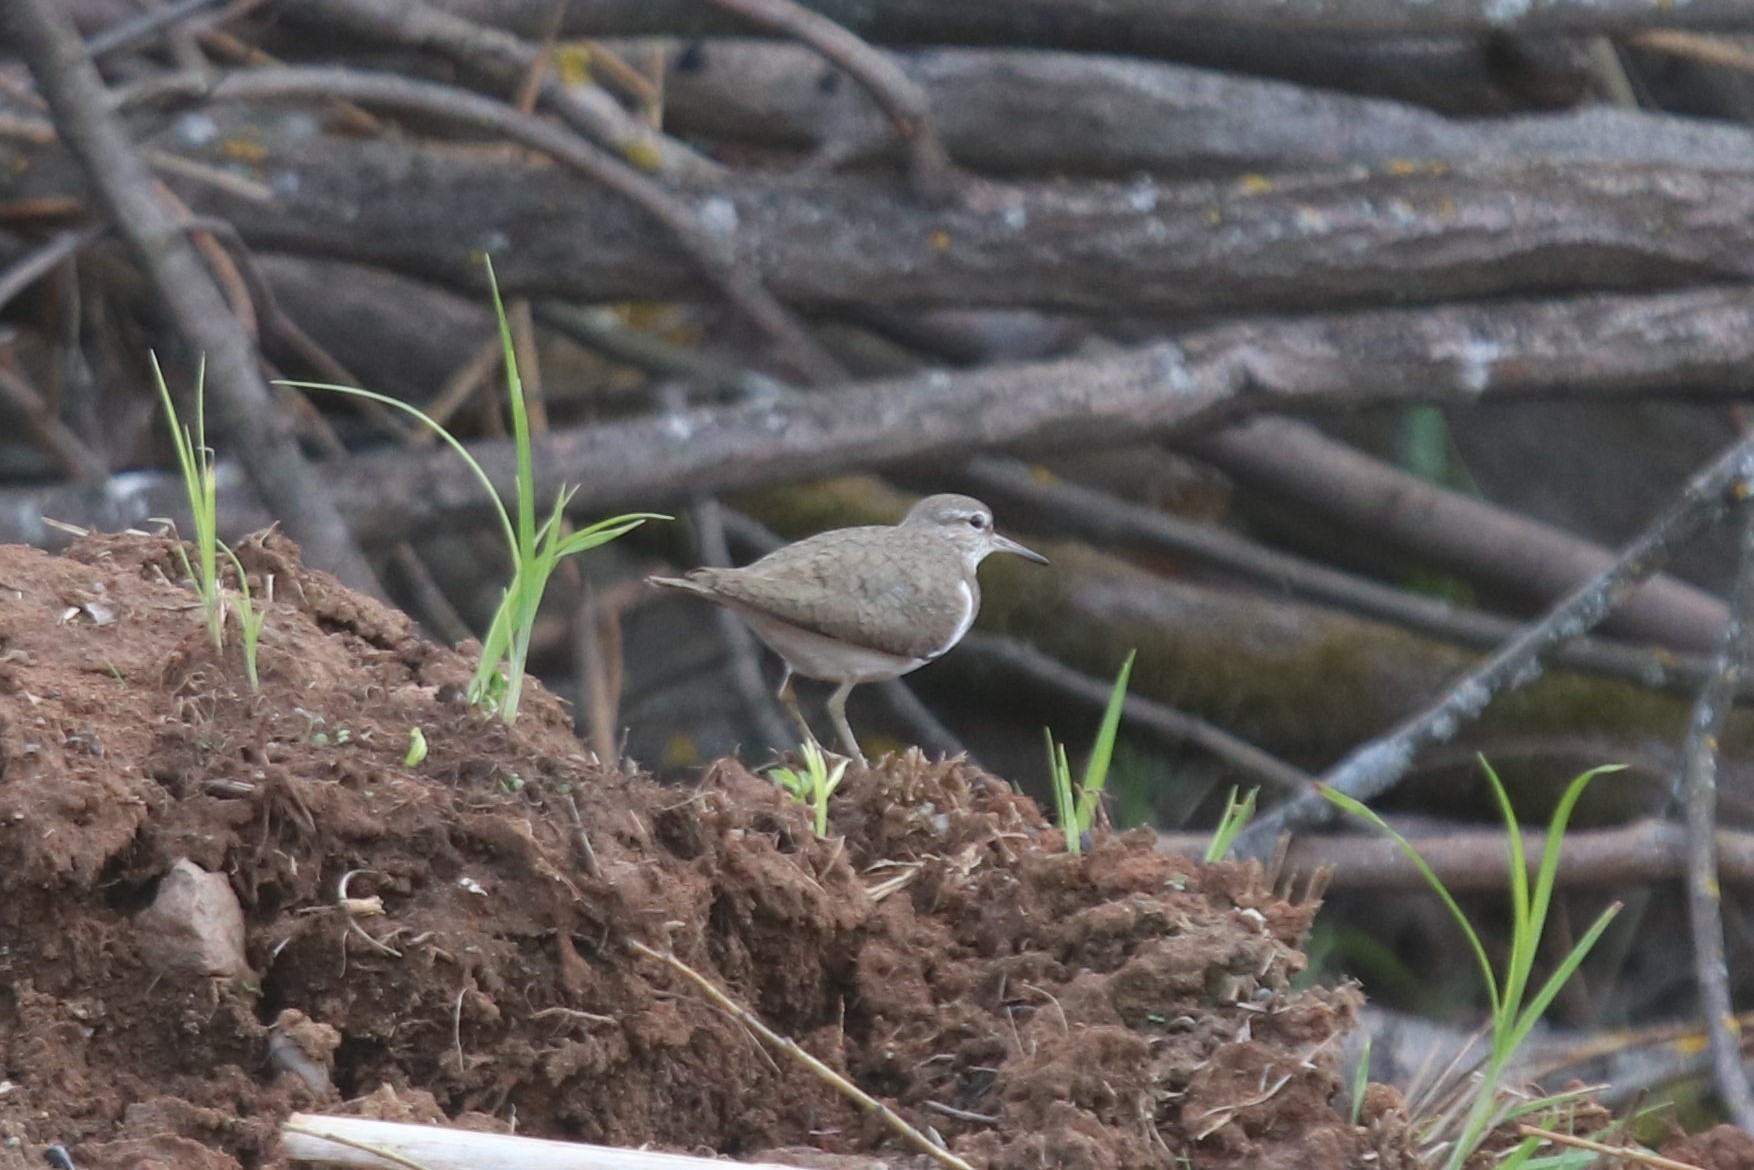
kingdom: Animalia
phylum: Chordata
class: Aves
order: Charadriiformes
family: Scolopacidae
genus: Actitis
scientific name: Actitis hypoleucos
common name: Common sandpiper
